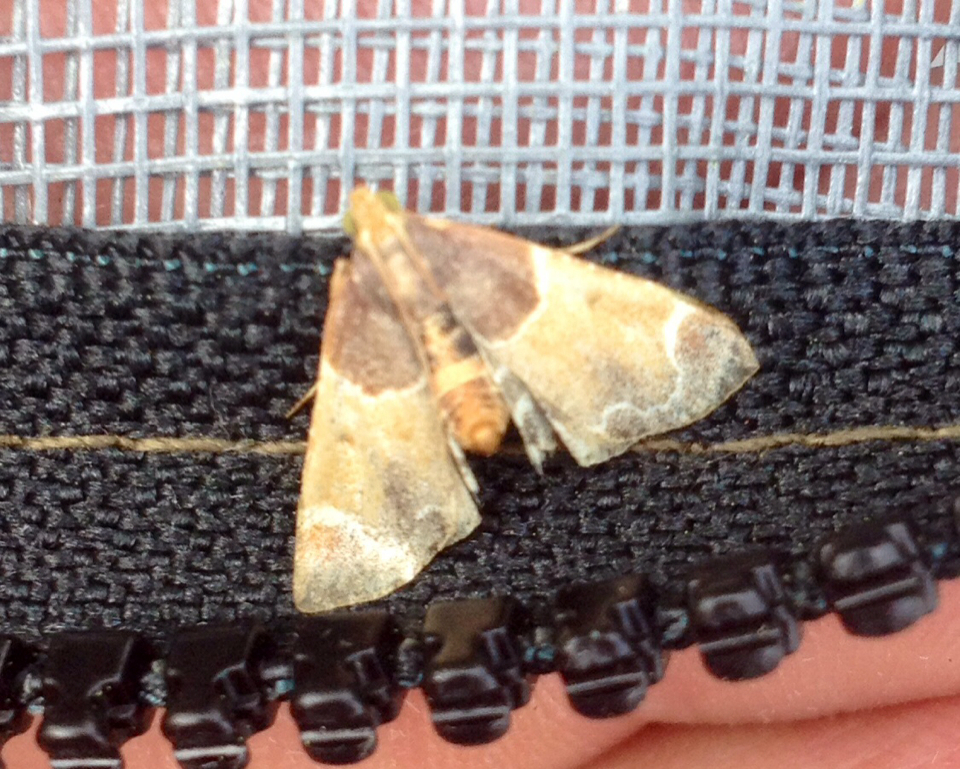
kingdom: Animalia
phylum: Arthropoda
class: Insecta
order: Lepidoptera
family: Pyralidae
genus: Pyralis
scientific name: Pyralis farinalis
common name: Meal moth
